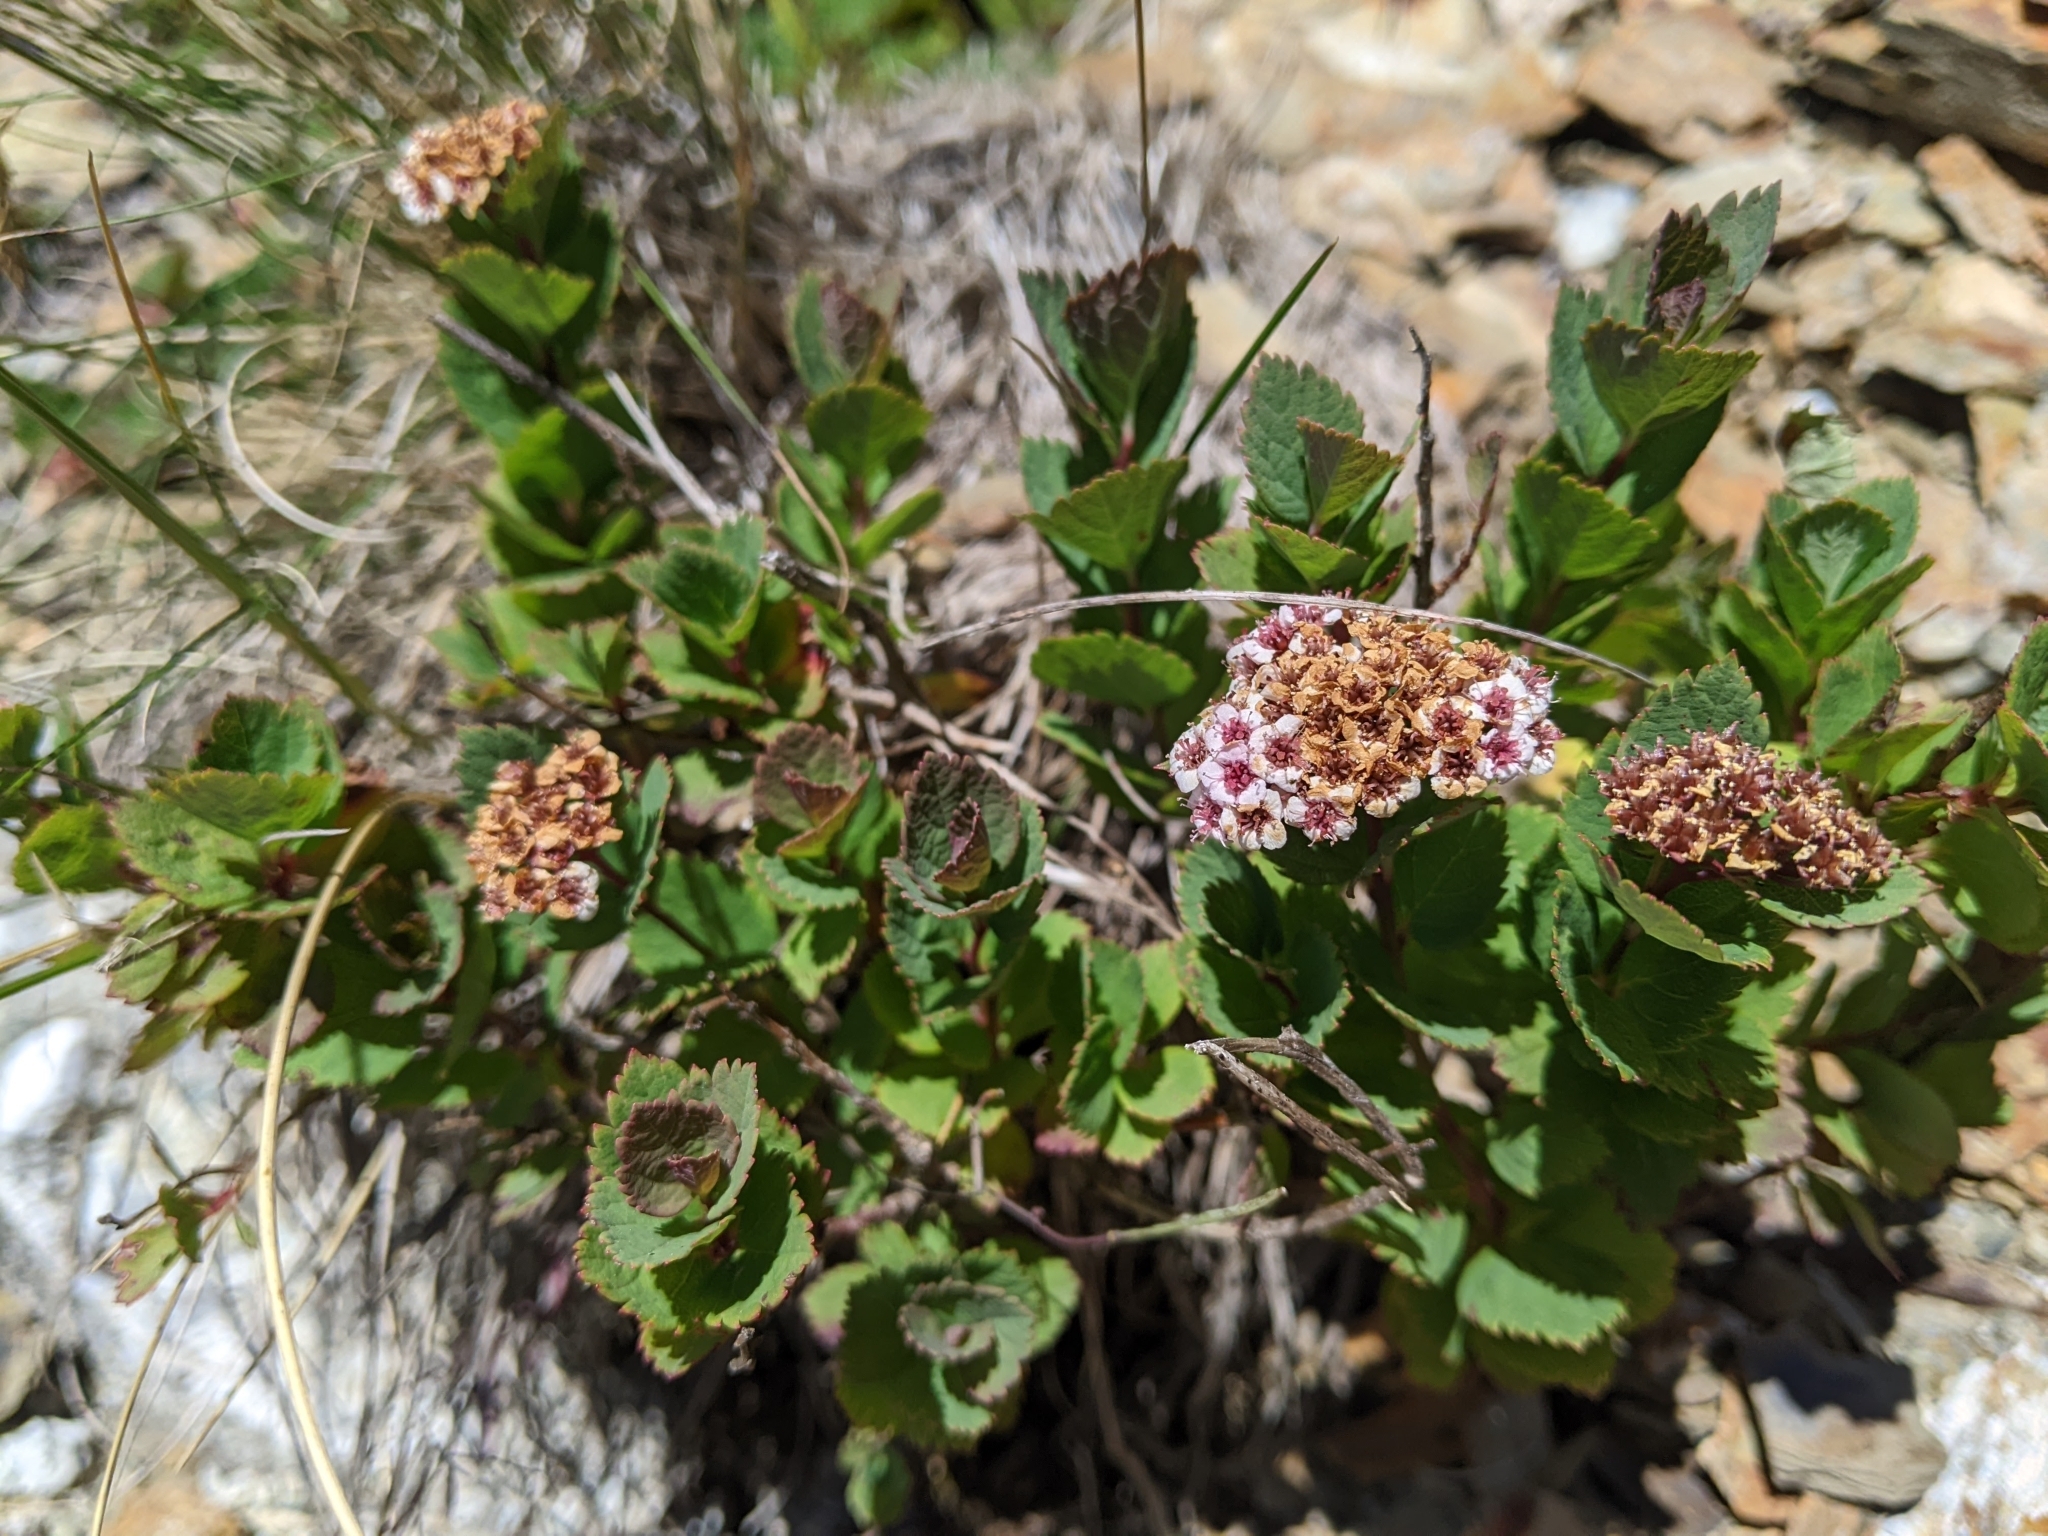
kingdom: Plantae
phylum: Tracheophyta
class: Magnoliopsida
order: Rosales
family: Rosaceae
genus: Spiraea
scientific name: Spiraea morrisonicola
